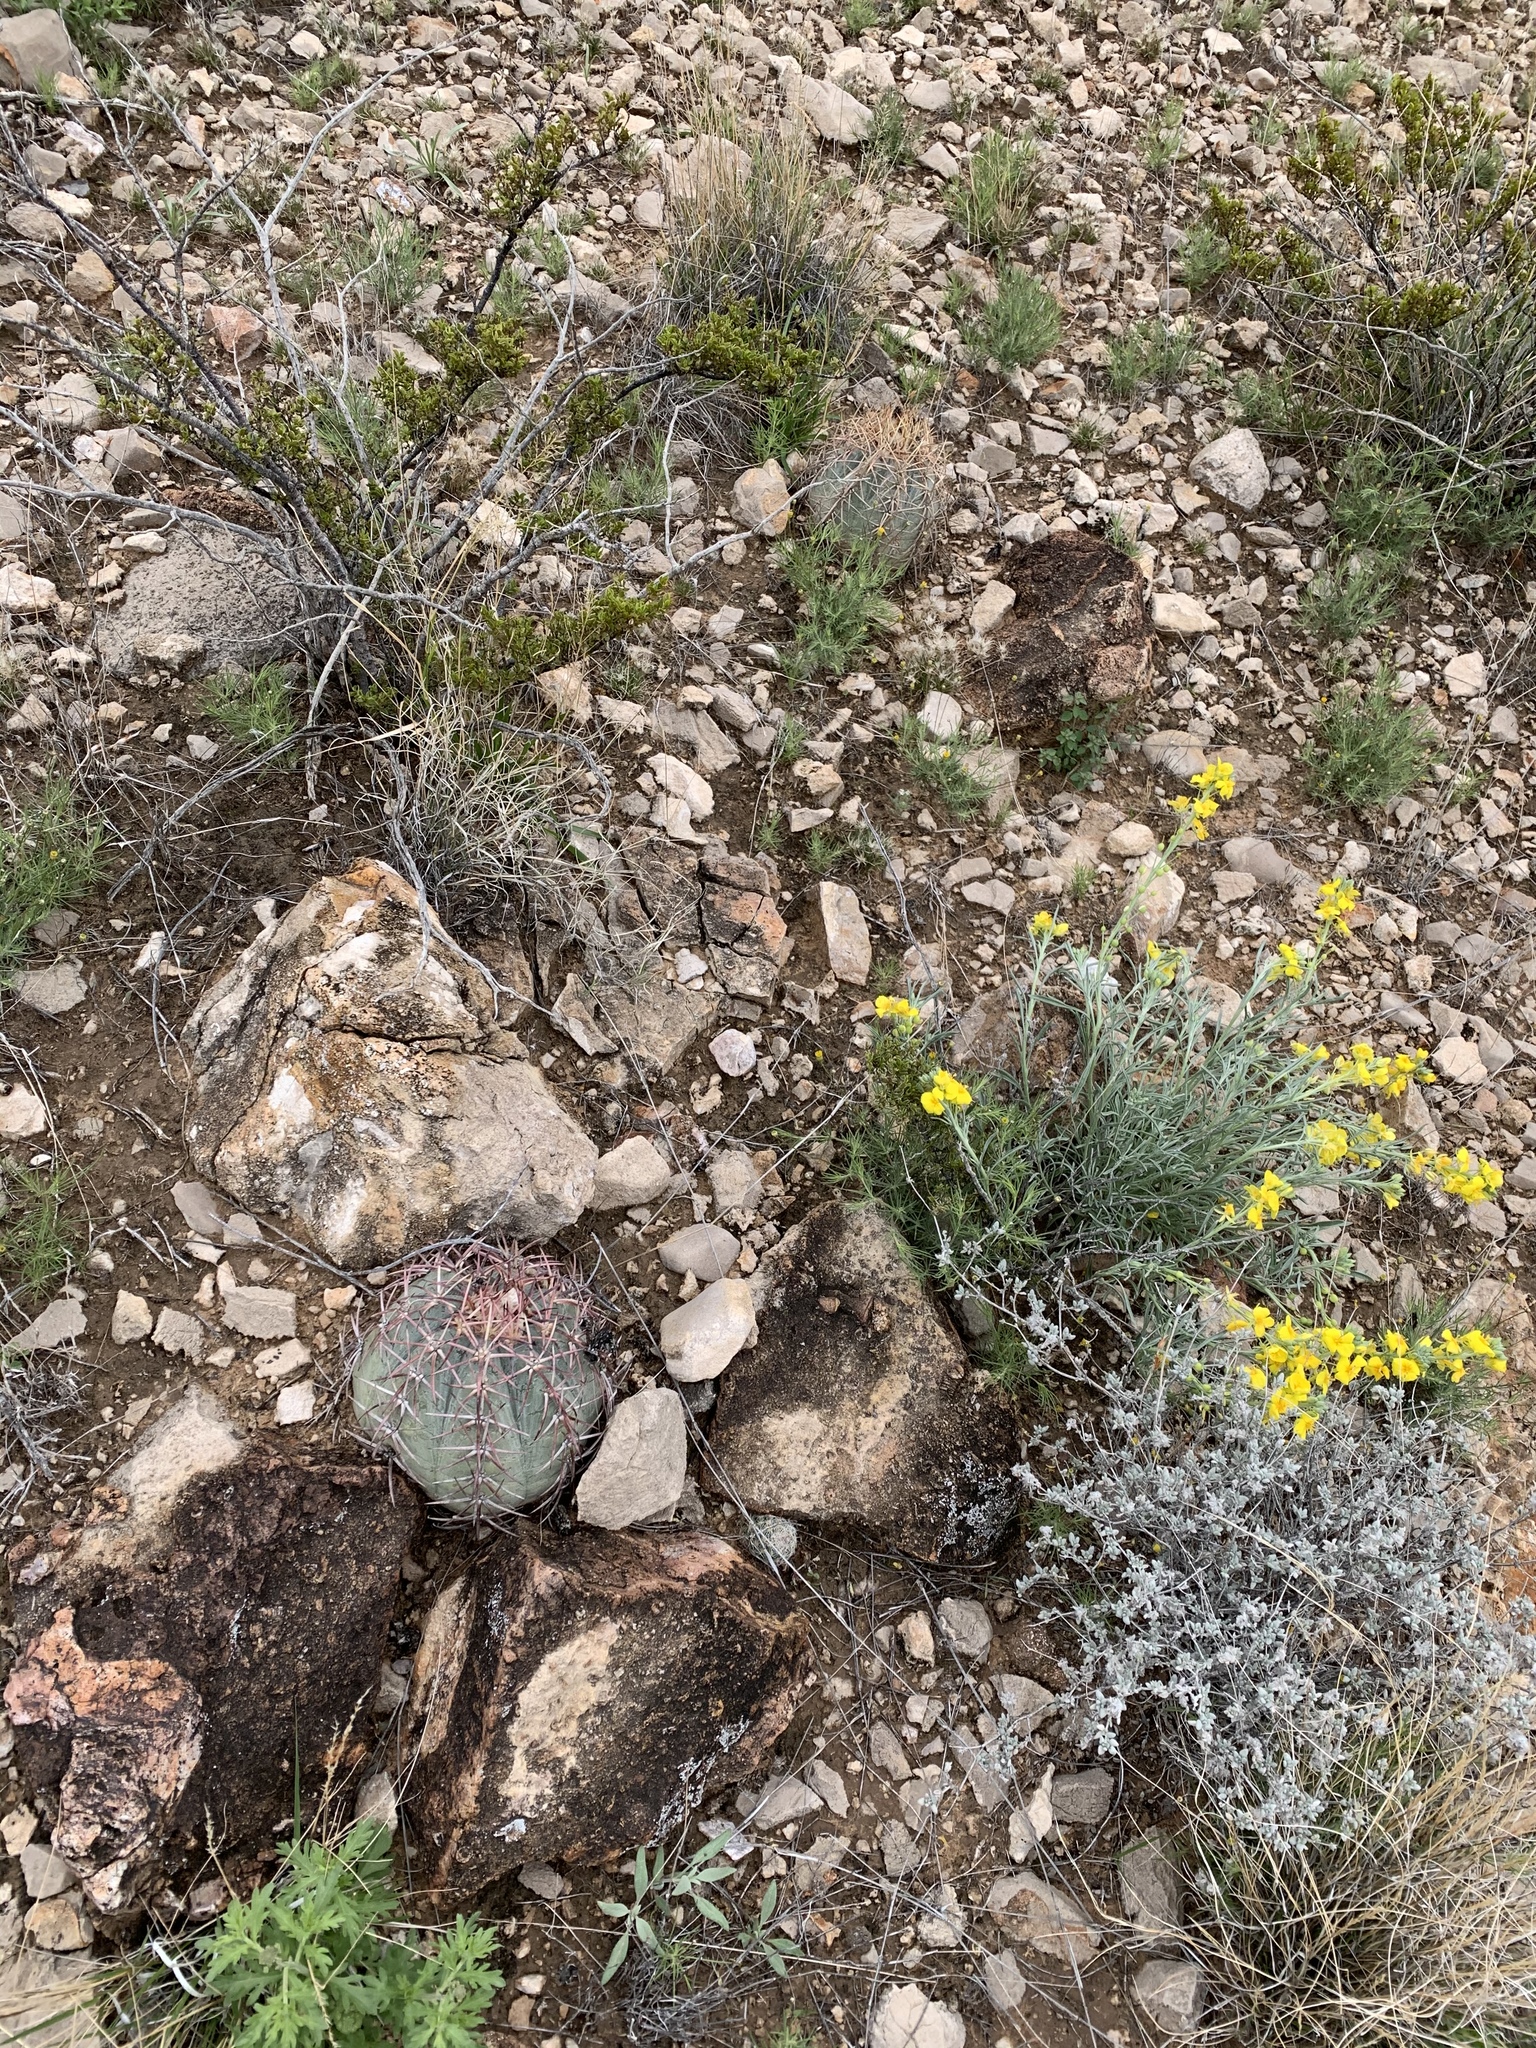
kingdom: Plantae
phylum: Tracheophyta
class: Magnoliopsida
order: Caryophyllales
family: Cactaceae
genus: Echinocactus
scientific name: Echinocactus horizonthalonius
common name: Devilshead
